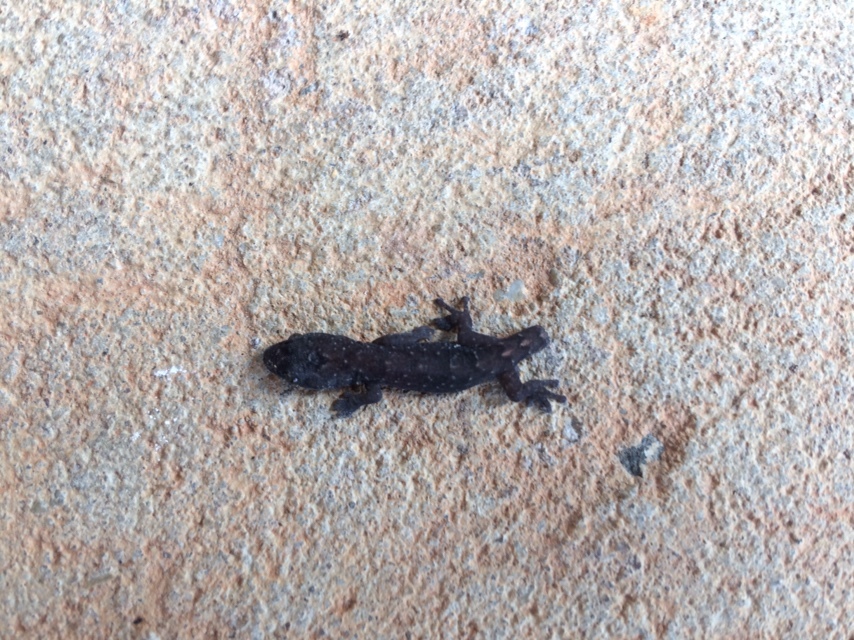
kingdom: Animalia
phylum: Chordata
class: Squamata
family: Gekkonidae
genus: Christinus
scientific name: Christinus marmoratus
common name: Marbled gecko
